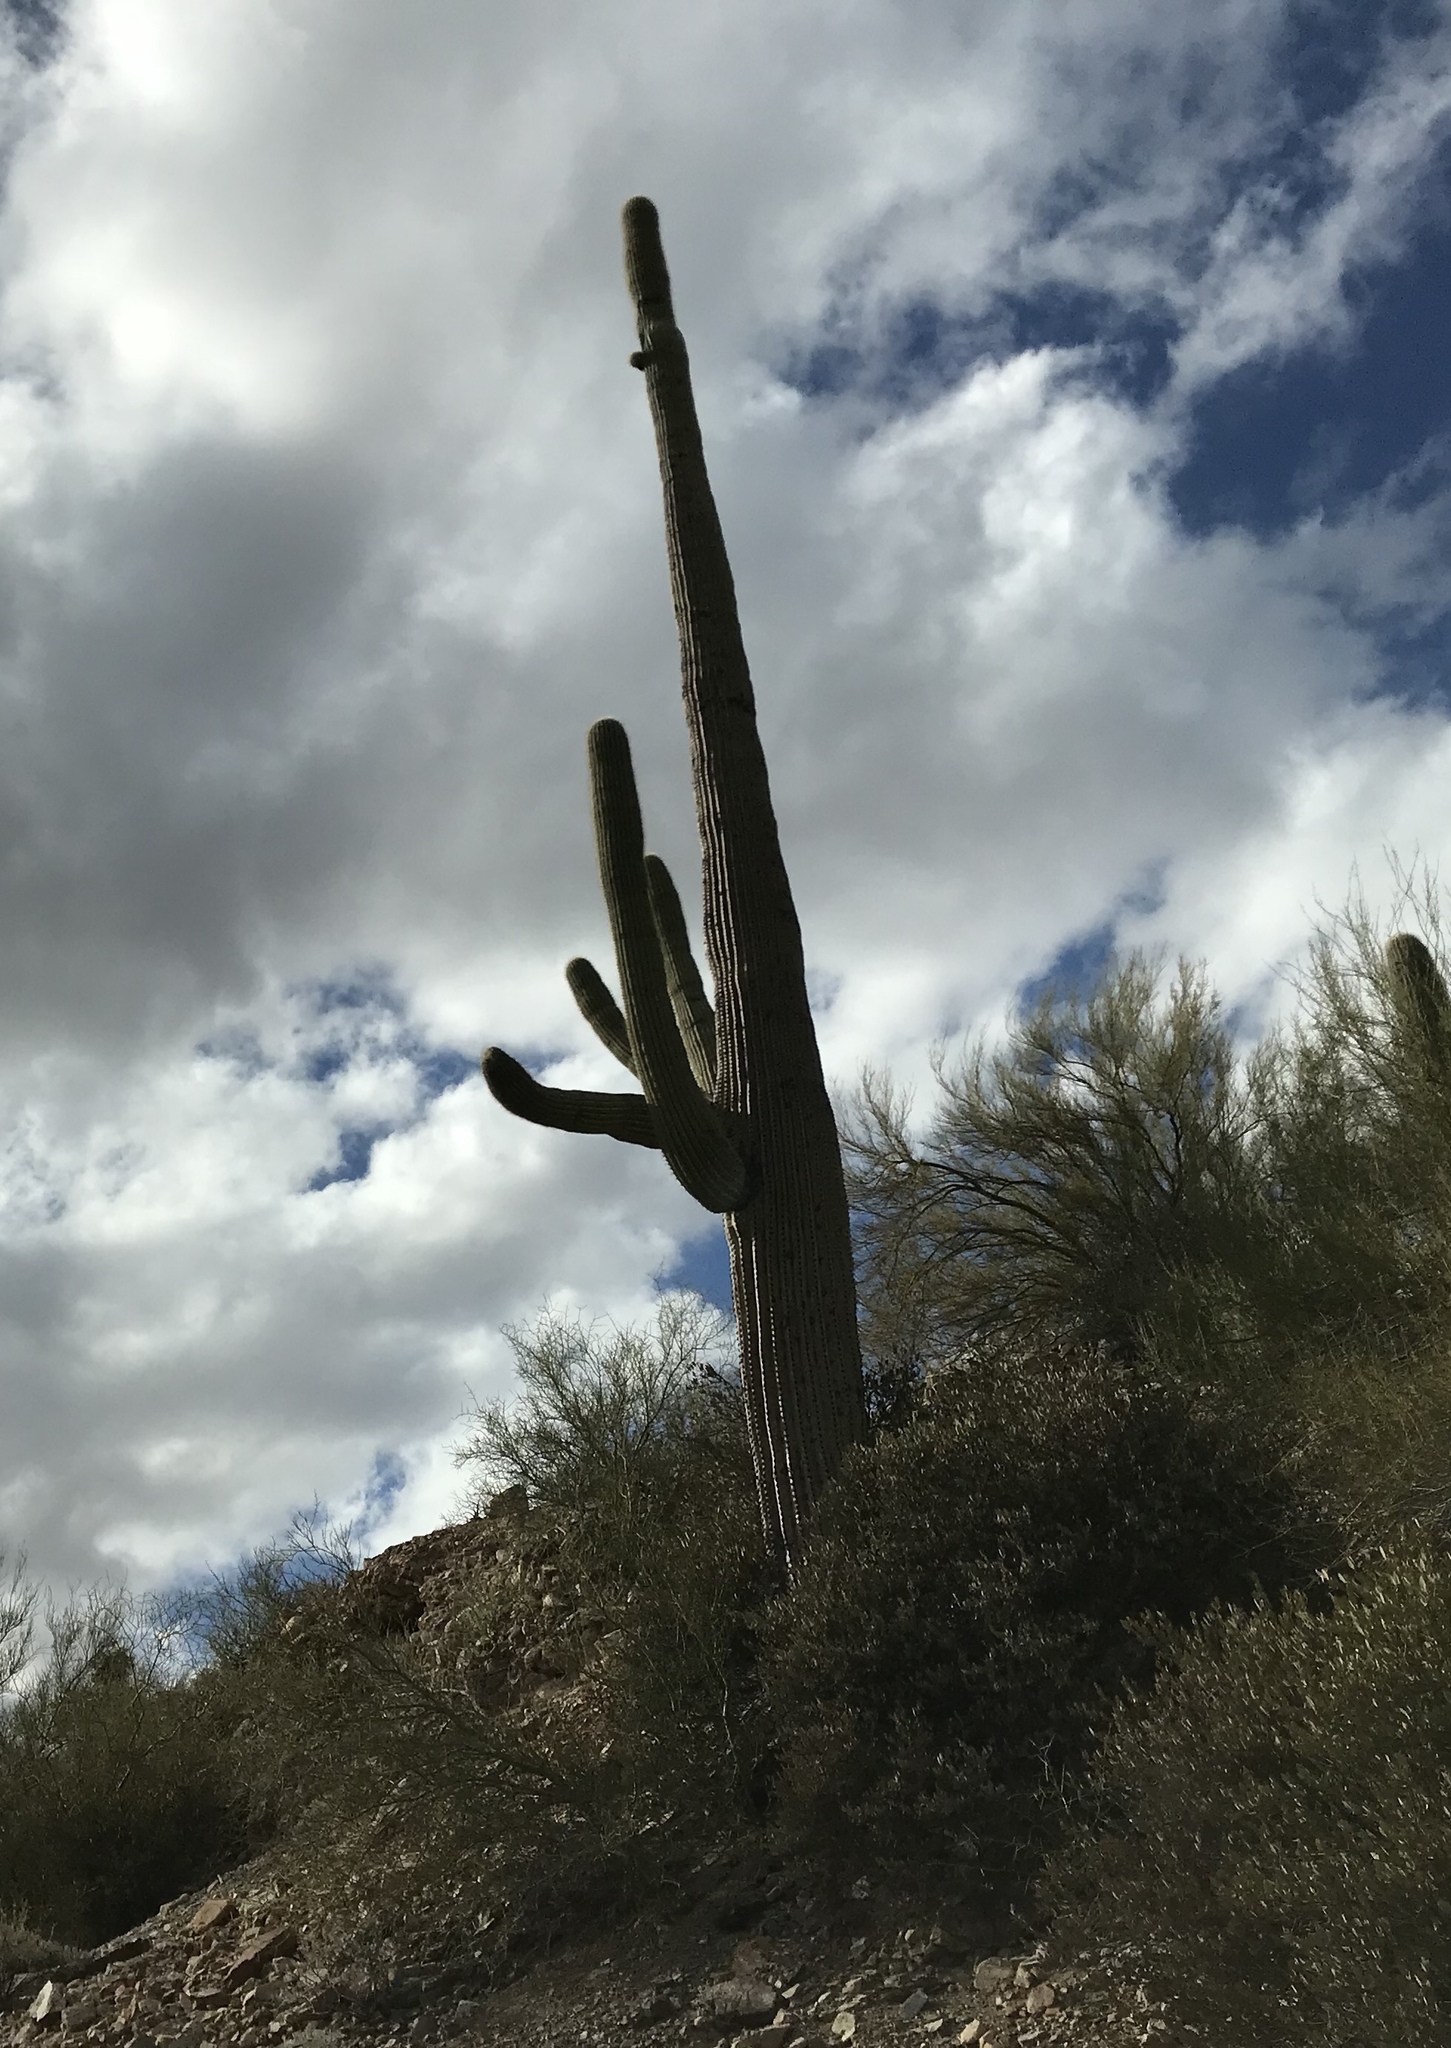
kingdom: Plantae
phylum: Tracheophyta
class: Magnoliopsida
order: Caryophyllales
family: Cactaceae
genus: Carnegiea
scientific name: Carnegiea gigantea
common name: Saguaro
